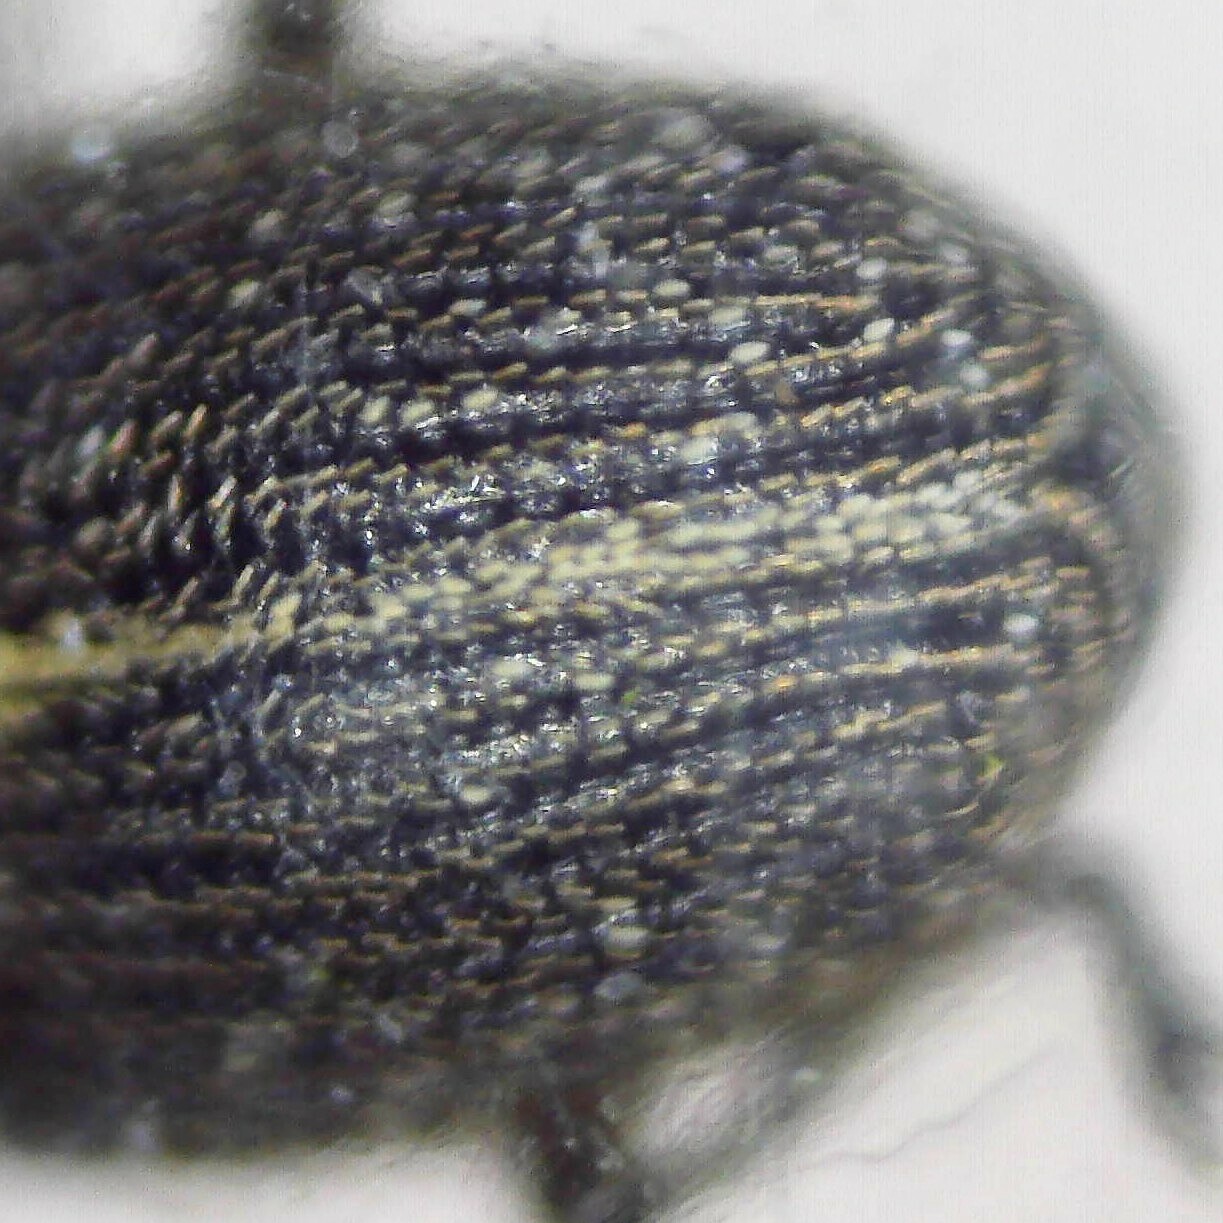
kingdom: Animalia
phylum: Arthropoda
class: Insecta
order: Coleoptera
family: Curculionidae
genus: Ceutorhynchus
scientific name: Ceutorhynchus typhae
